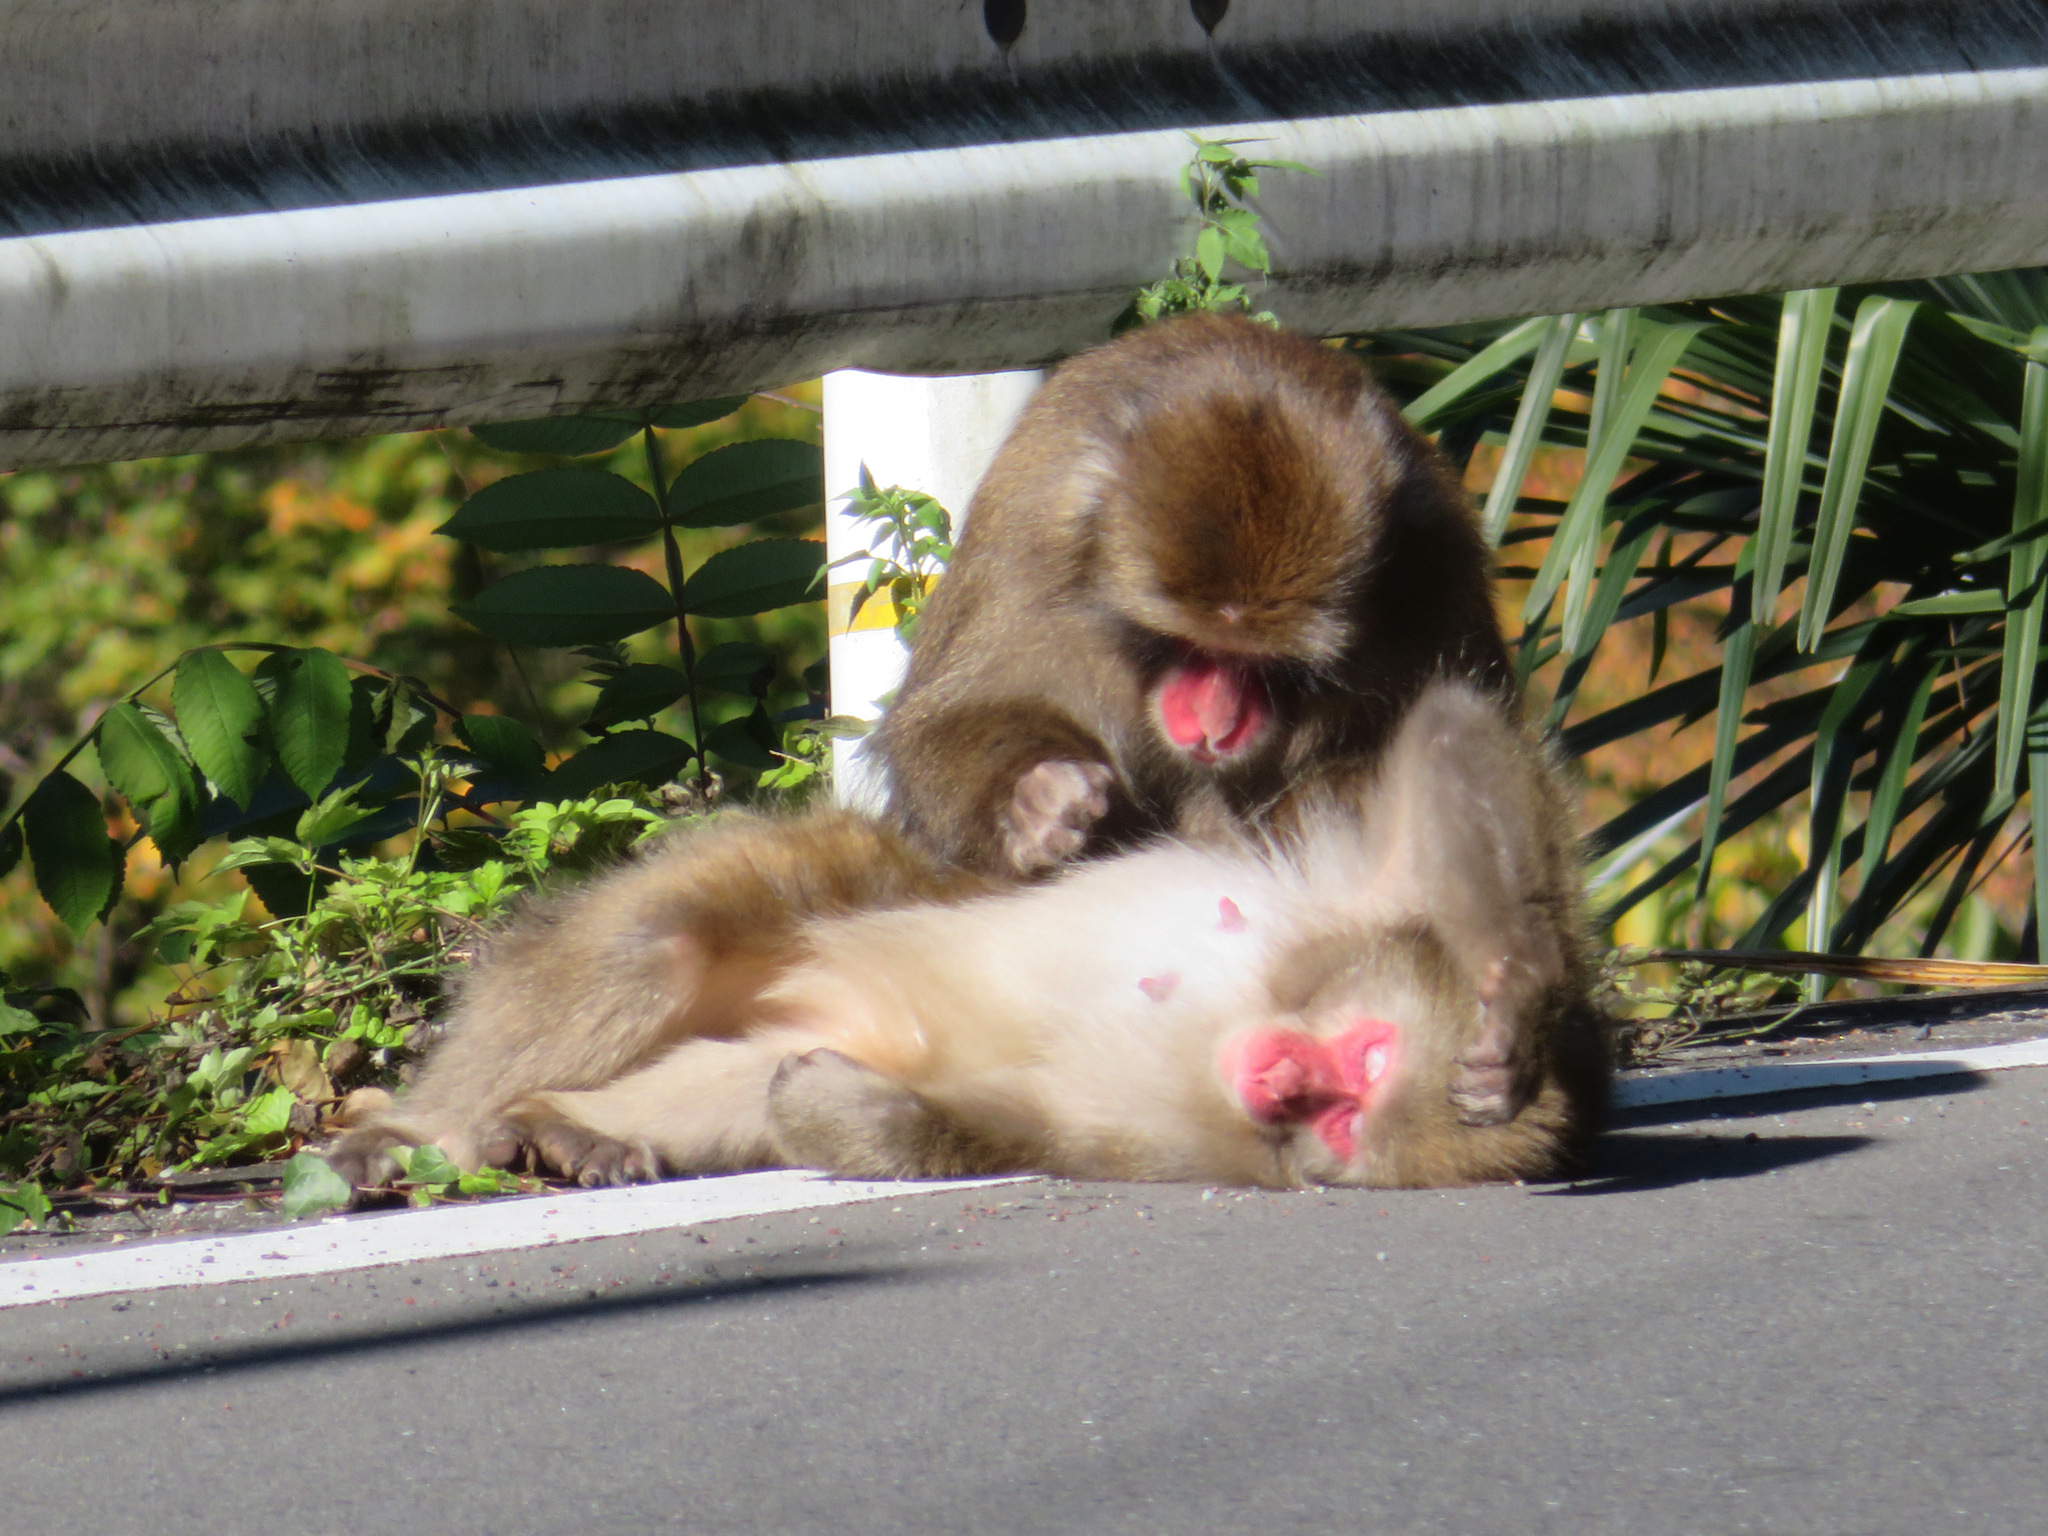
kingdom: Animalia
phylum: Chordata
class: Mammalia
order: Primates
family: Cercopithecidae
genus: Macaca
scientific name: Macaca fuscata
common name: Japanese macaque
